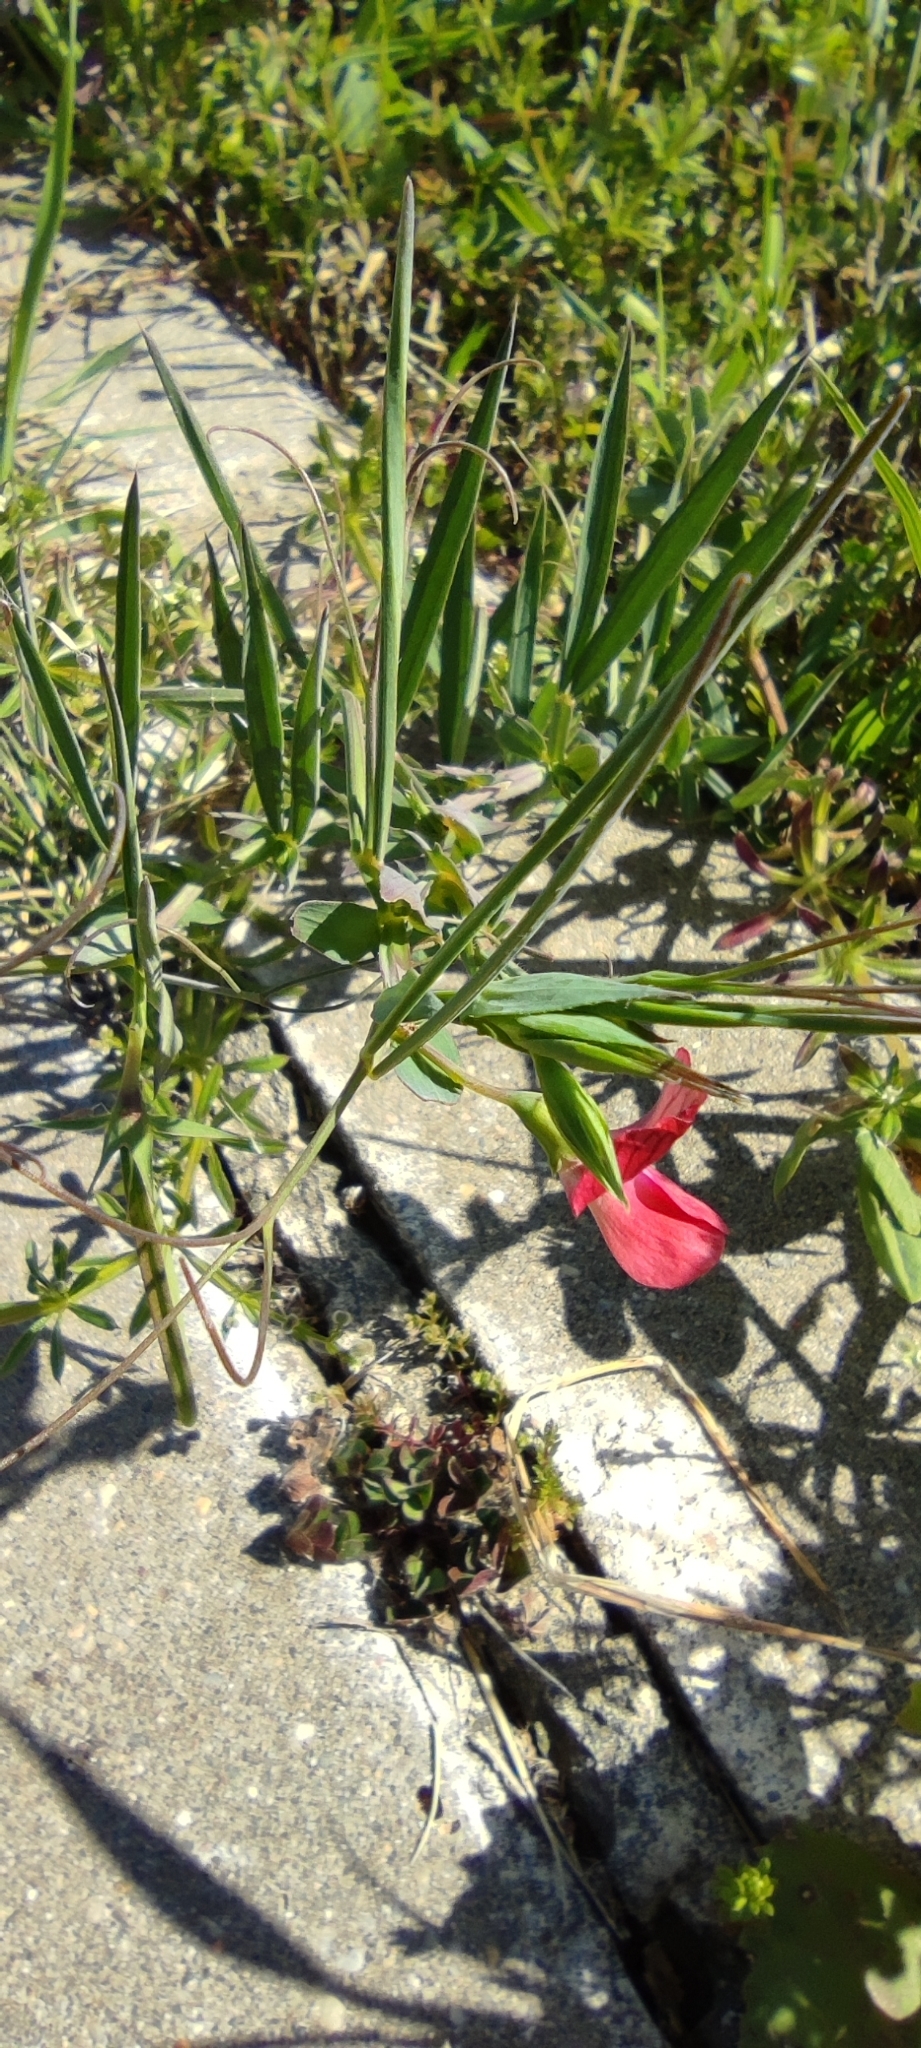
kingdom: Plantae
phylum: Tracheophyta
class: Magnoliopsida
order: Fabales
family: Fabaceae
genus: Lathyrus
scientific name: Lathyrus cicera
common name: Red vetchling
